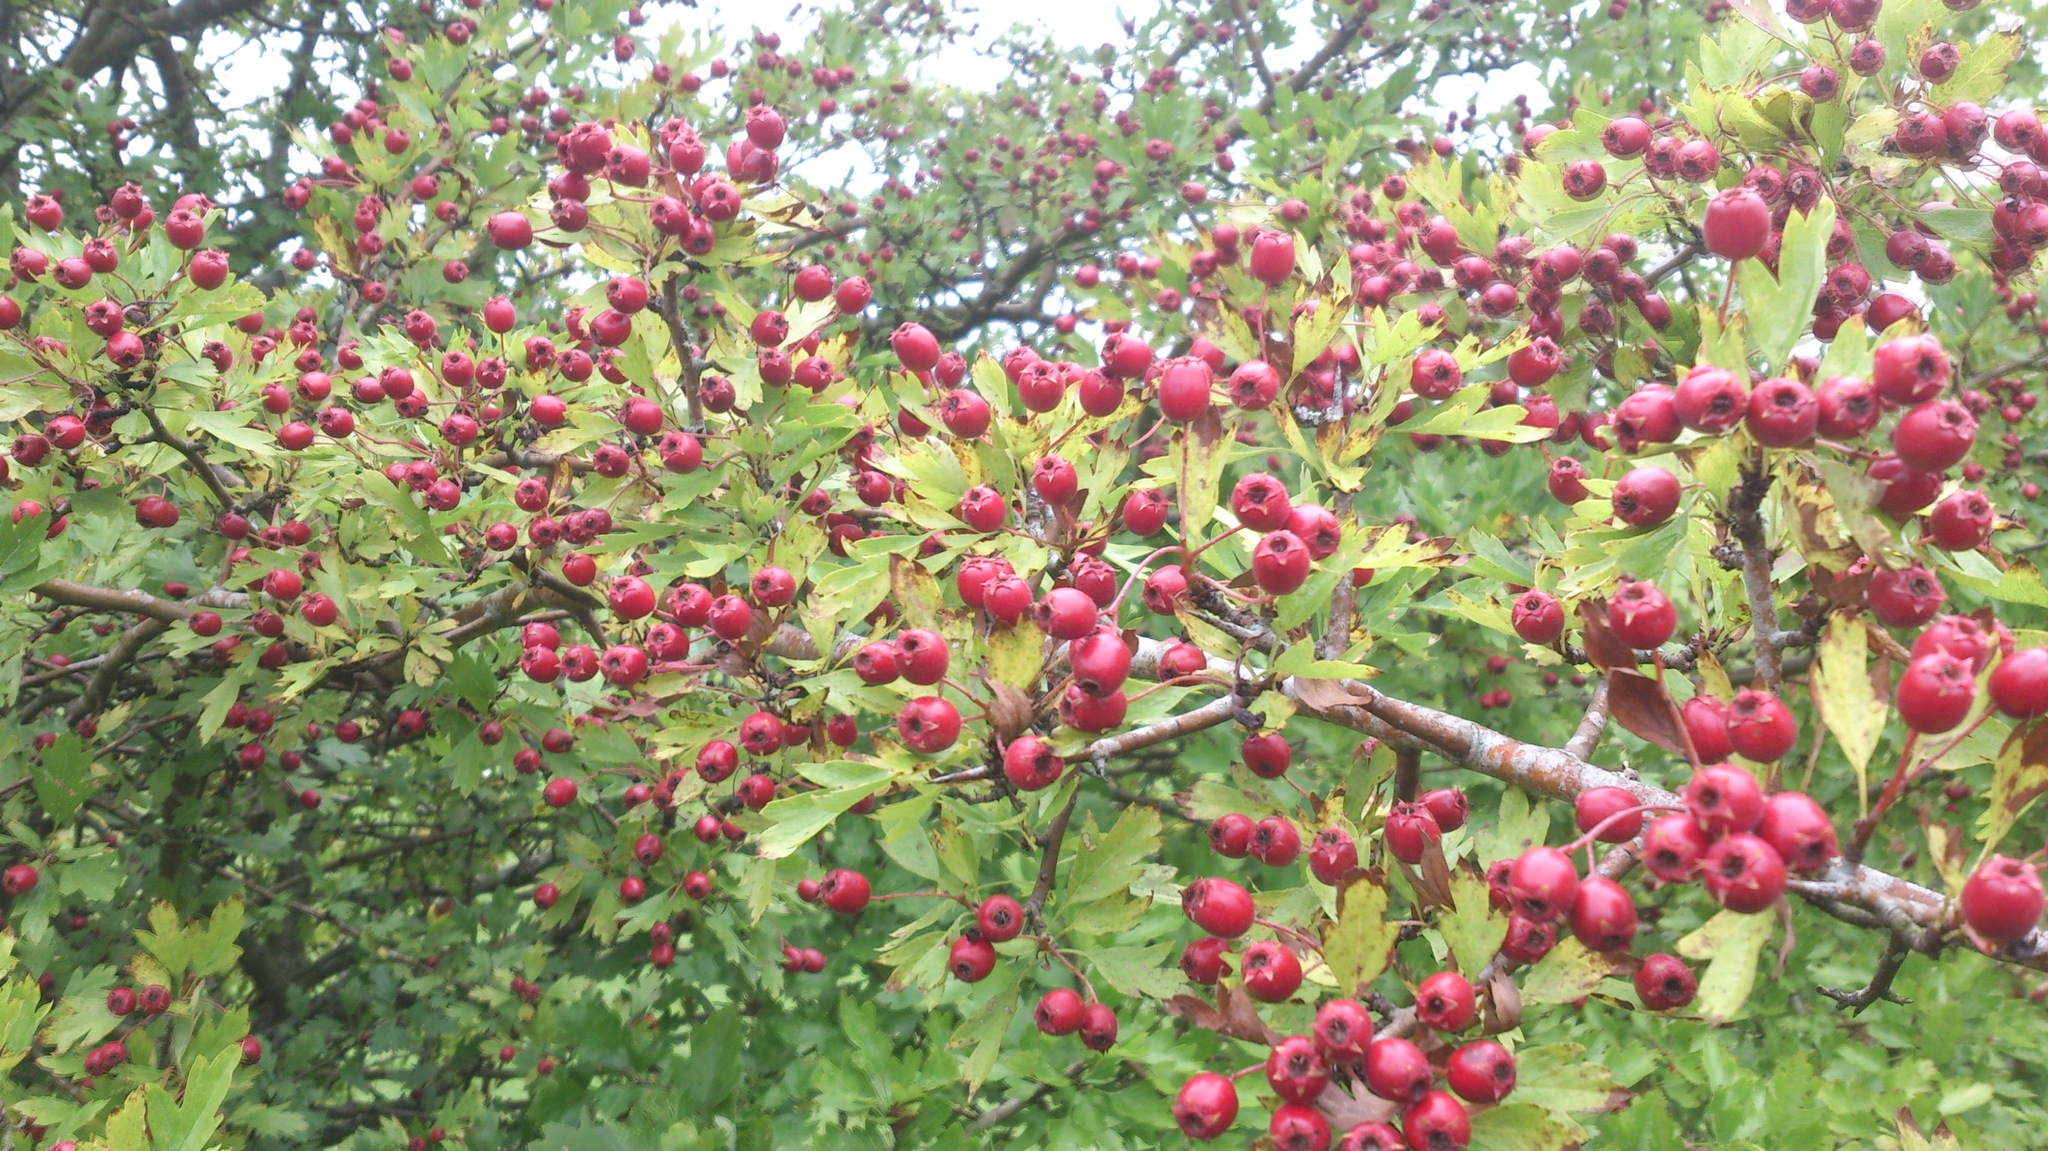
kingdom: Plantae
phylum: Tracheophyta
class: Magnoliopsida
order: Rosales
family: Rosaceae
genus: Crataegus
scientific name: Crataegus monogyna
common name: Hawthorn
